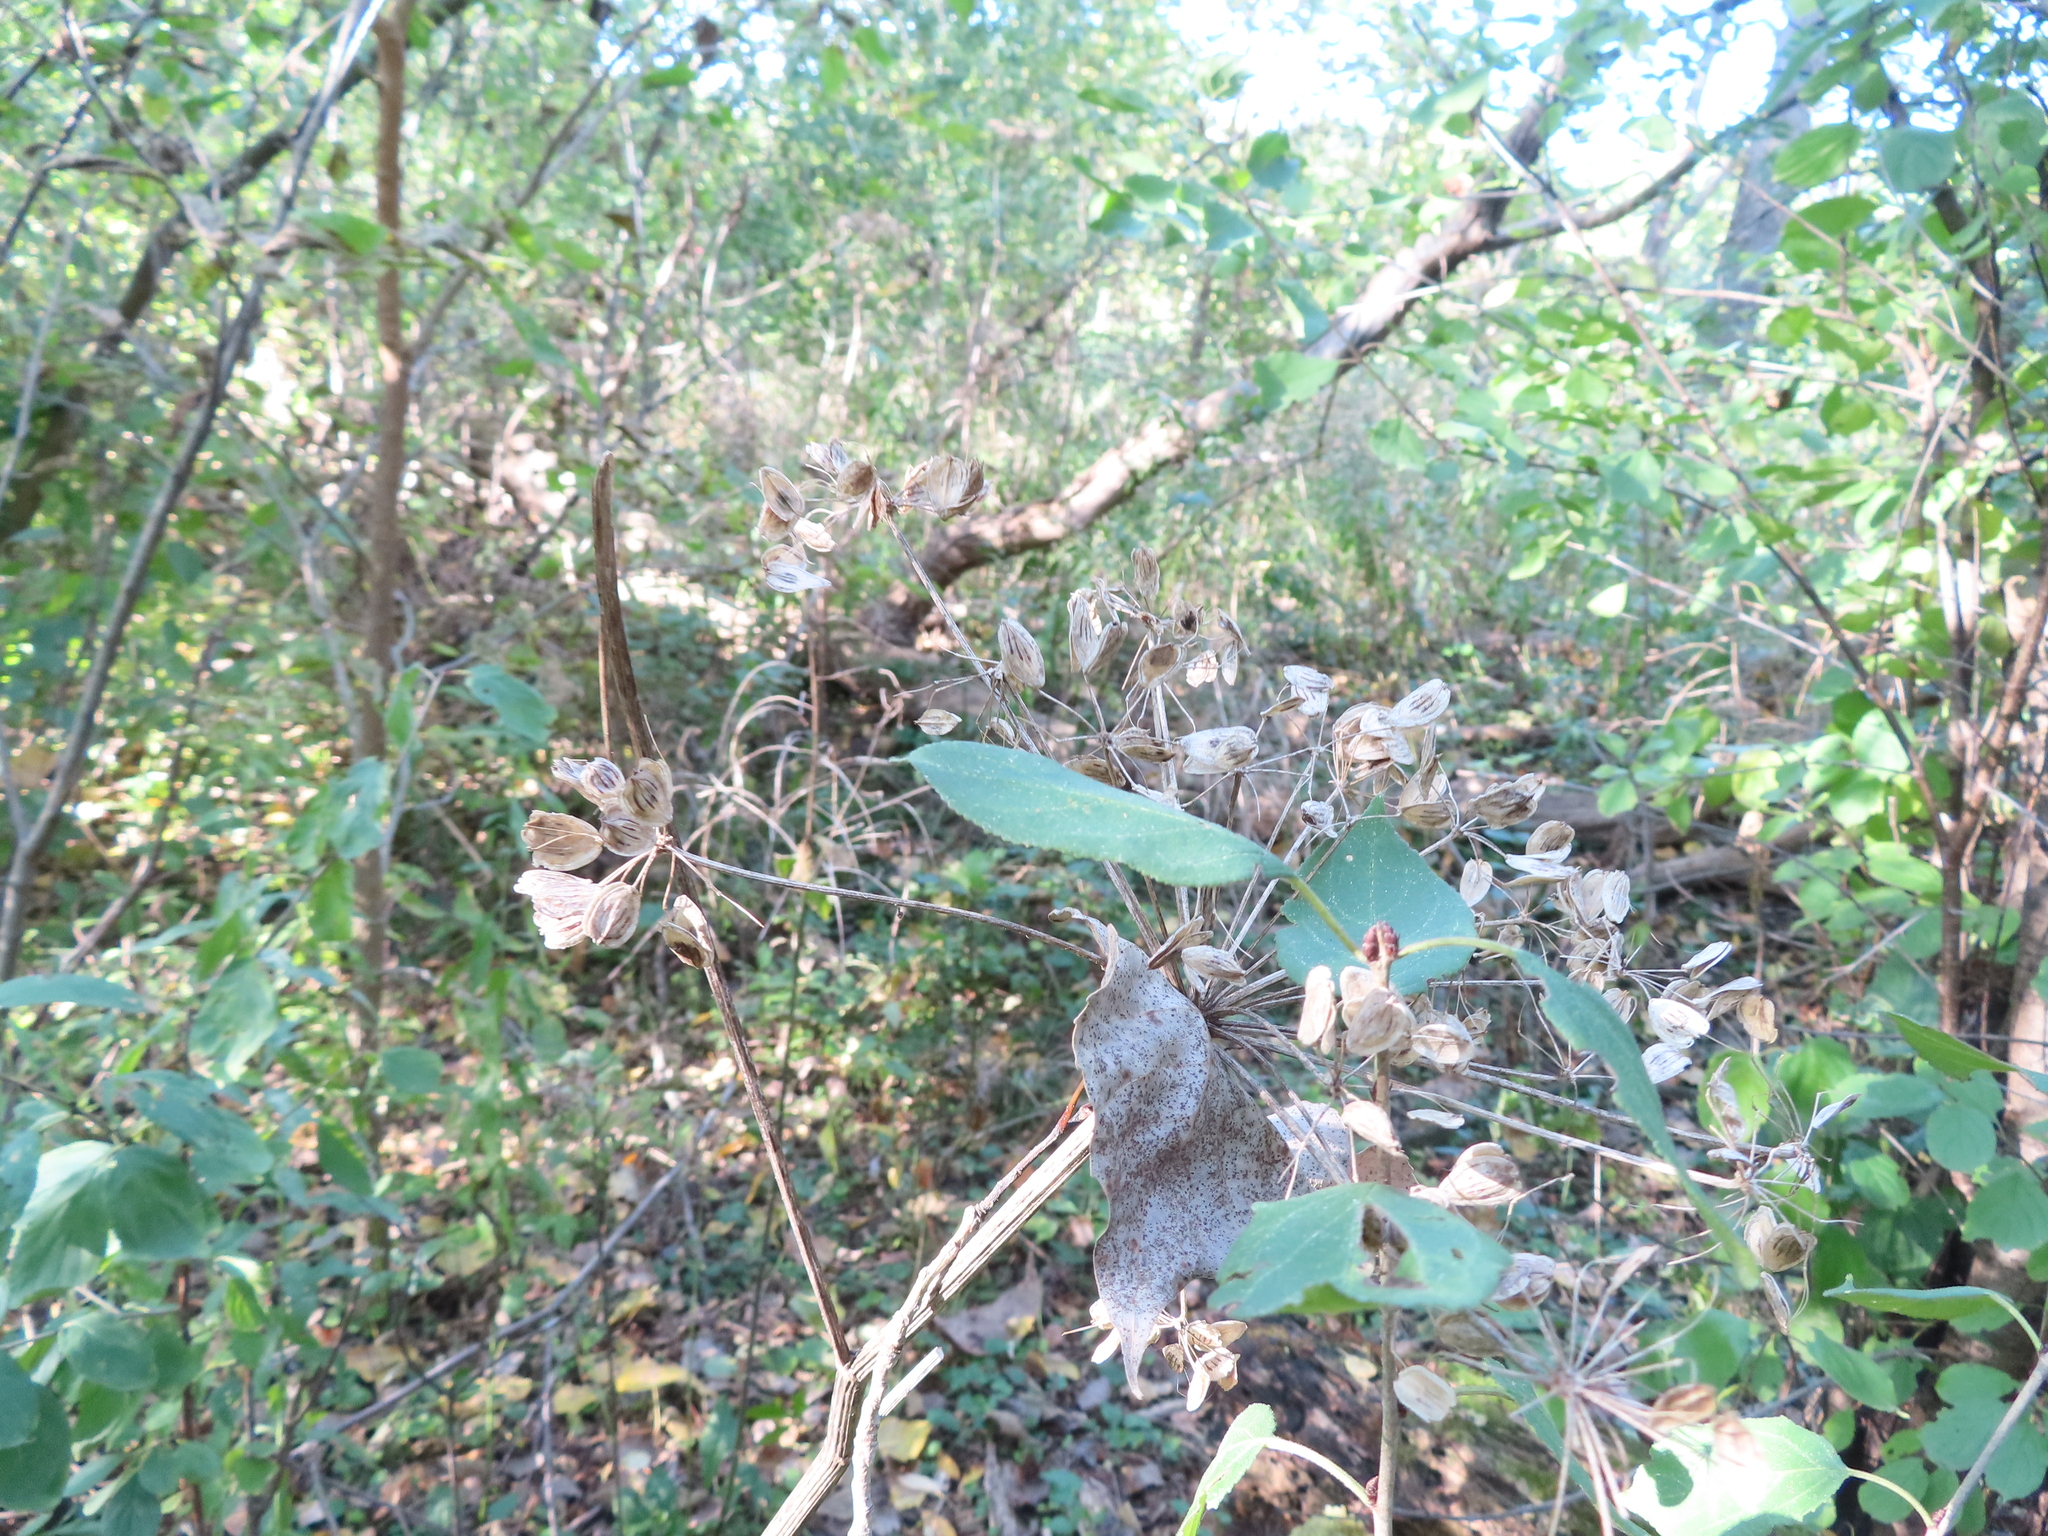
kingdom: Plantae
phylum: Tracheophyta
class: Magnoliopsida
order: Apiales
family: Apiaceae
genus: Pastinaca
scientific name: Pastinaca sativa
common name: Wild parsnip
